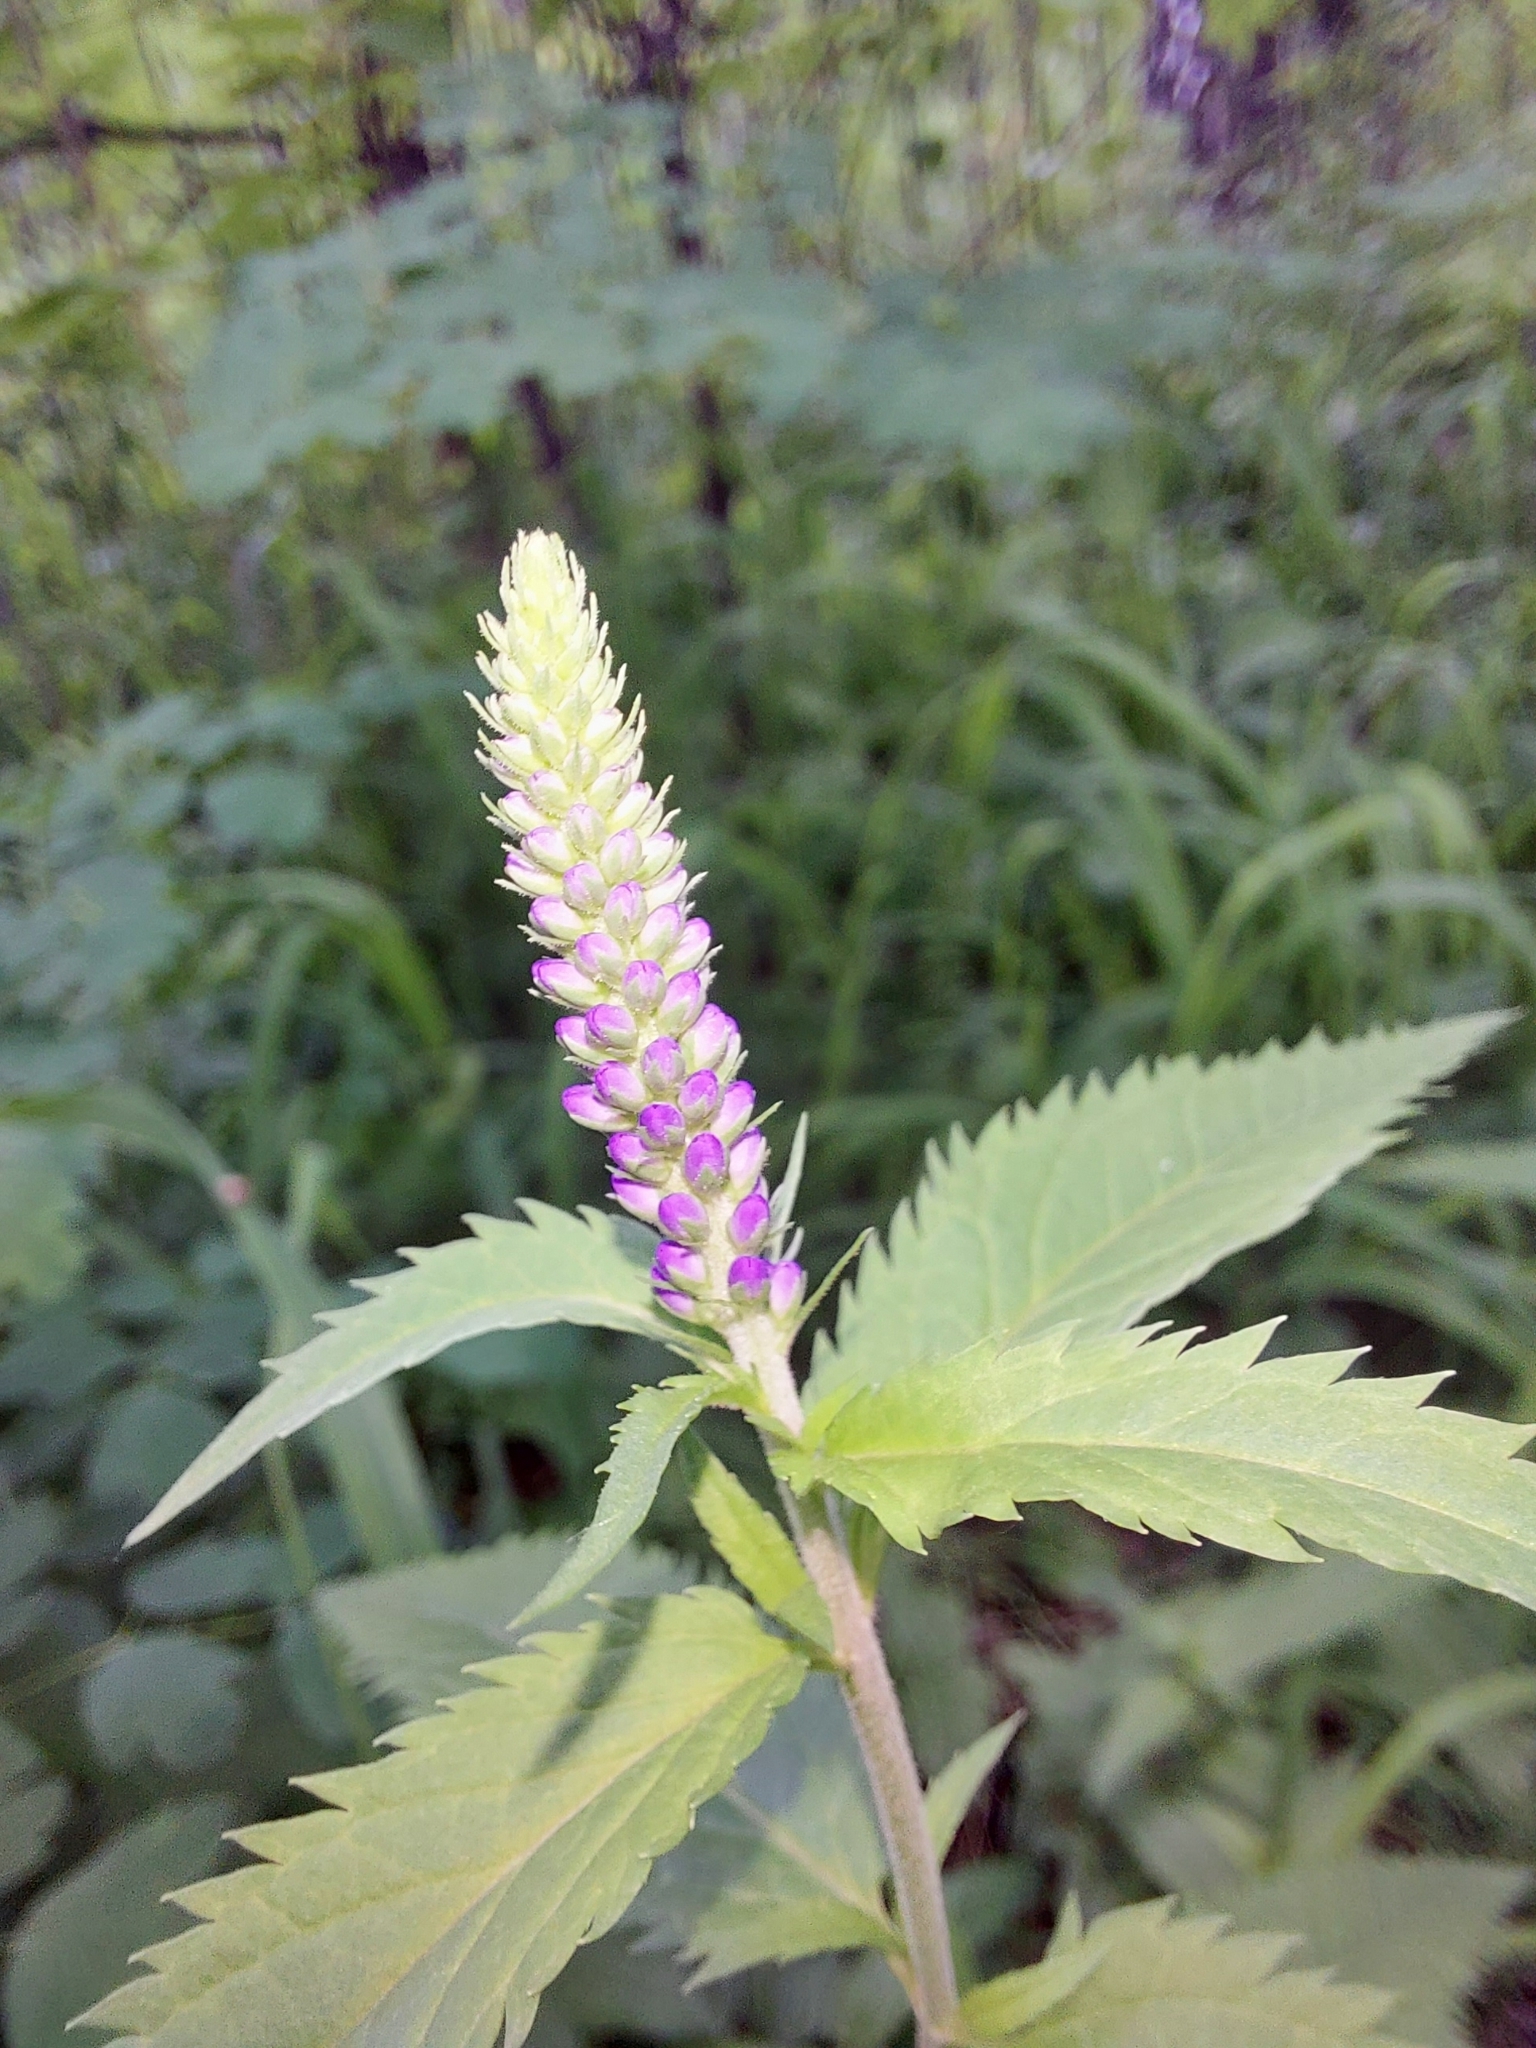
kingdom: Plantae
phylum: Tracheophyta
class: Magnoliopsida
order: Lamiales
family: Plantaginaceae
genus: Veronica
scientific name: Veronica longifolia
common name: Garden speedwell
